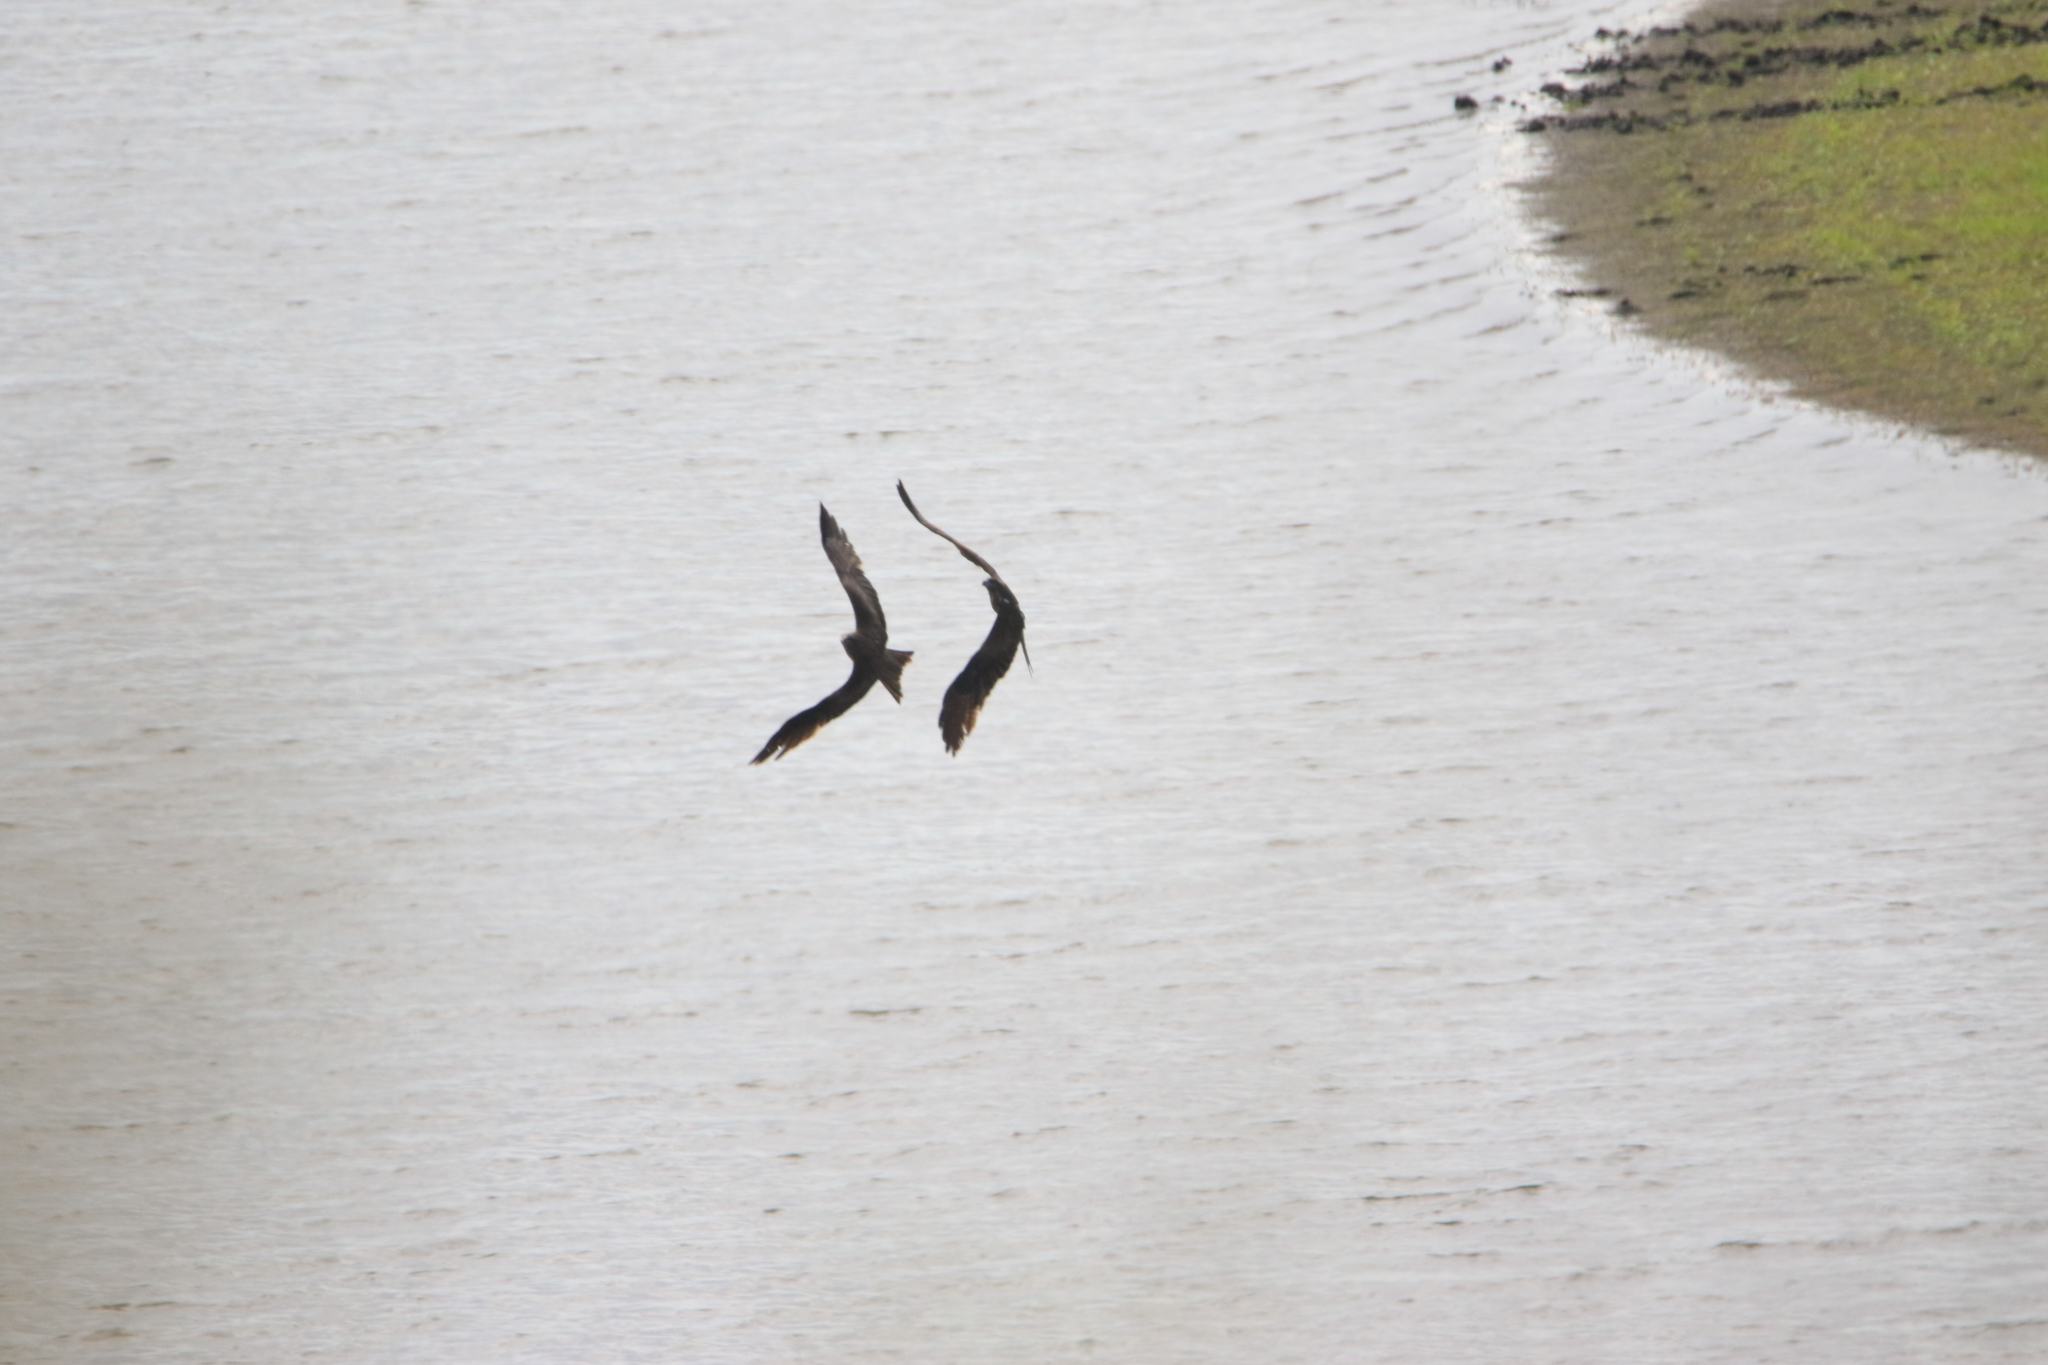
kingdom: Animalia
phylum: Chordata
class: Aves
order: Accipitriformes
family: Accipitridae
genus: Milvus
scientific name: Milvus migrans
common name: Black kite
